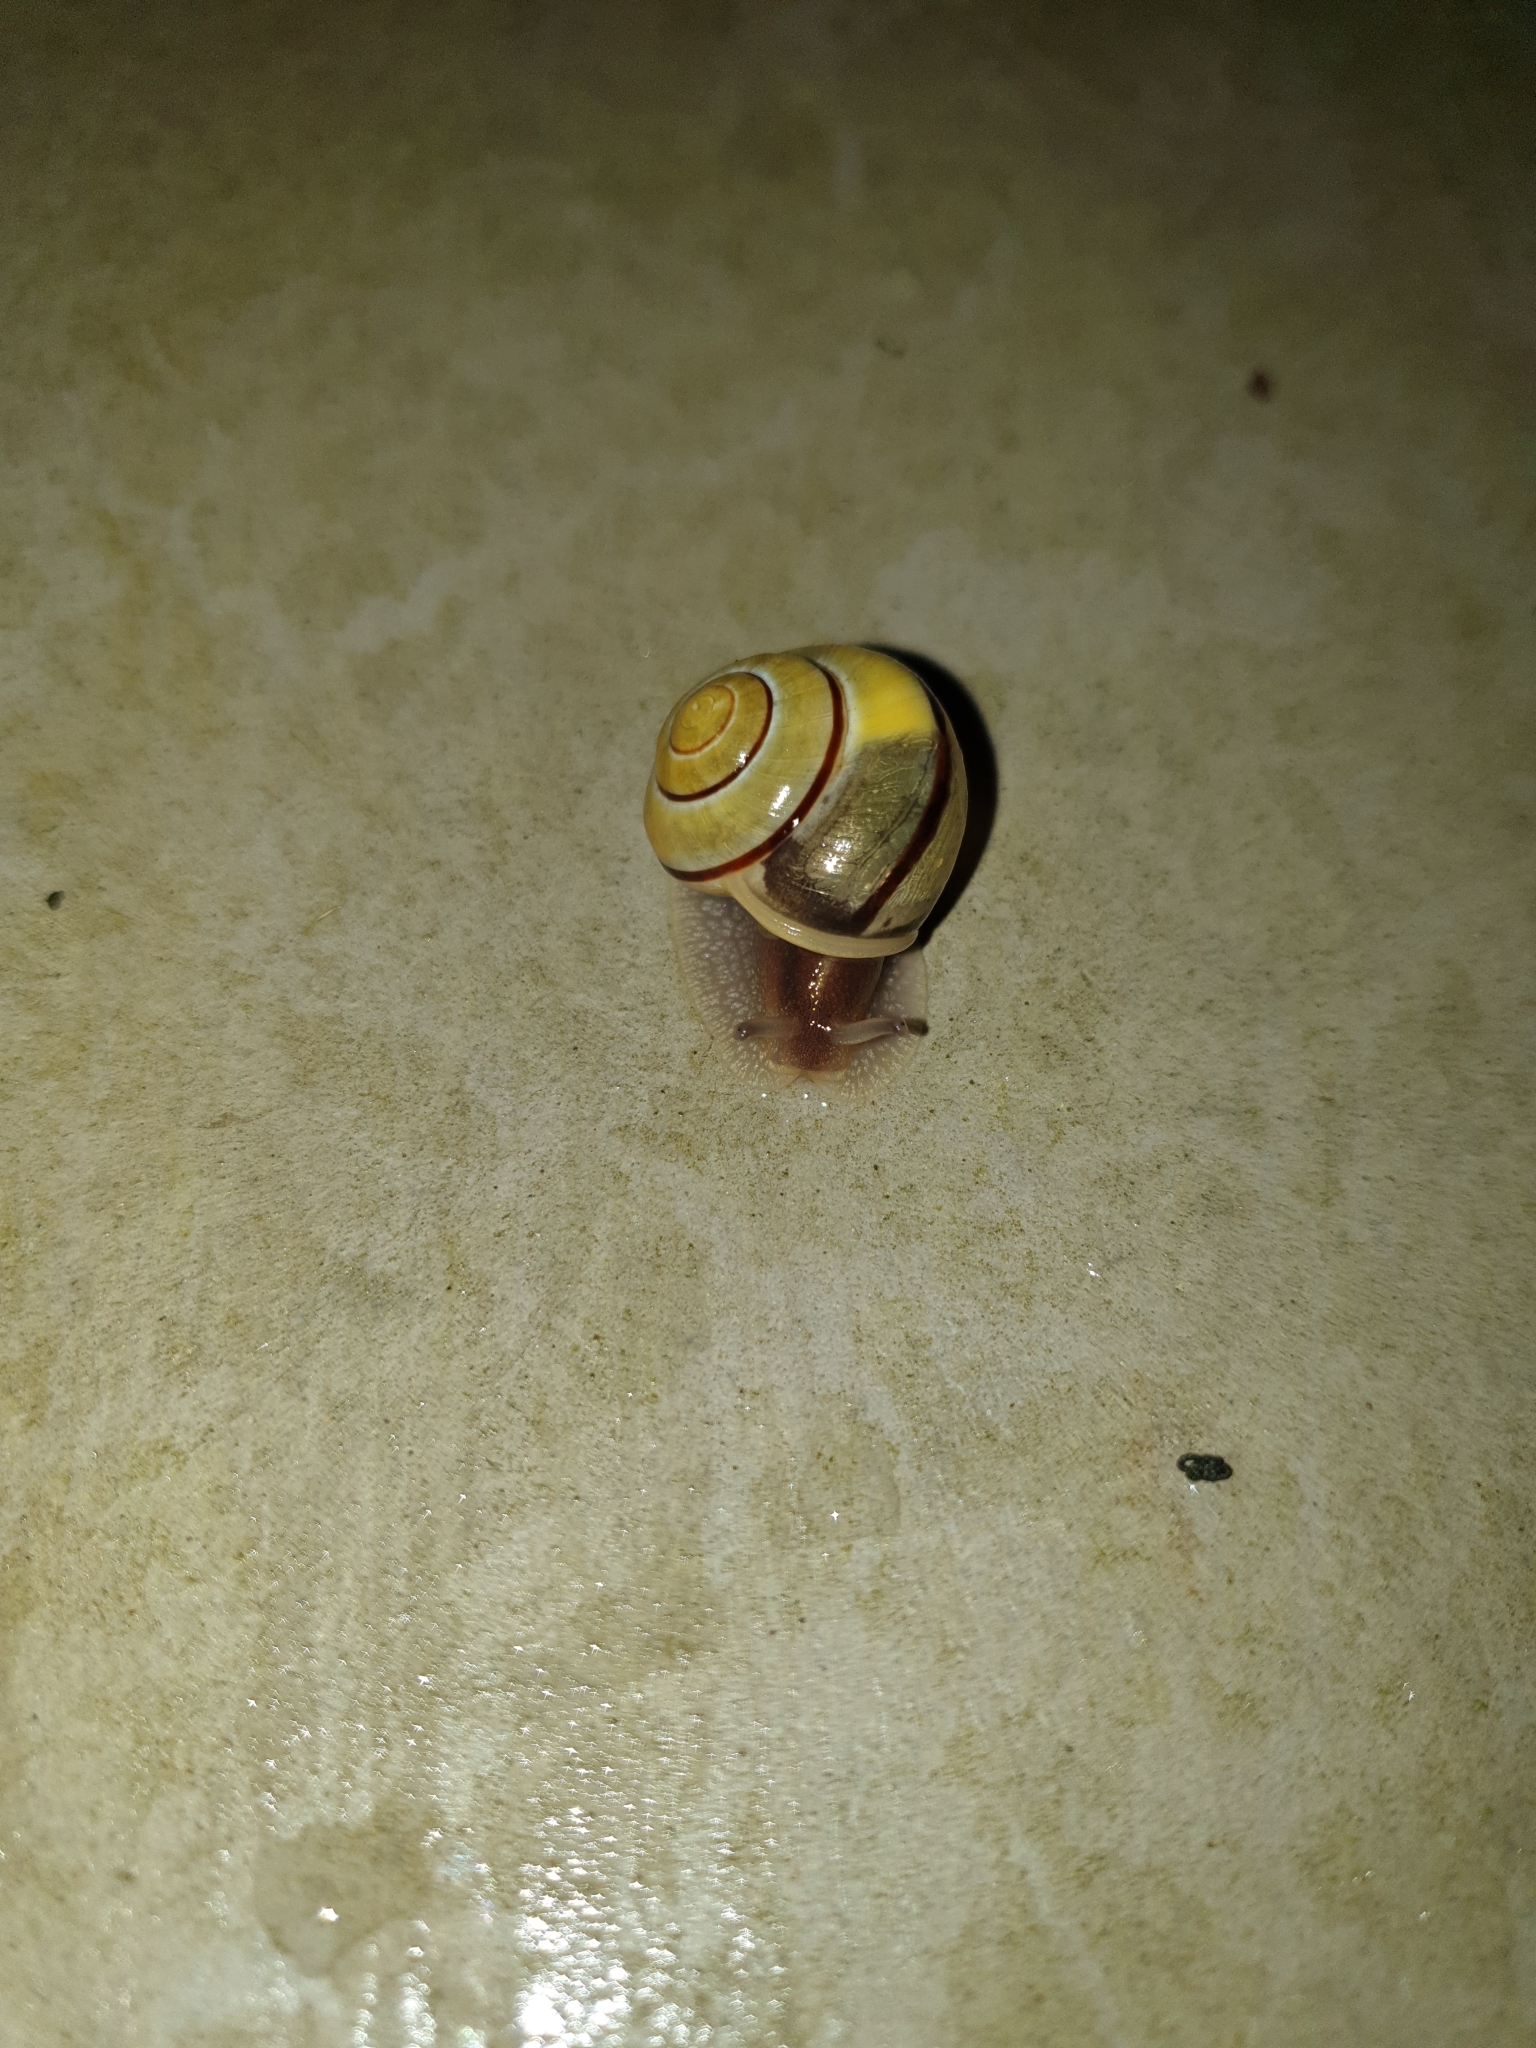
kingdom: Animalia
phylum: Mollusca
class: Gastropoda
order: Stylommatophora
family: Helicidae
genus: Cepaea
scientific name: Cepaea nemoralis
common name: Grovesnail
